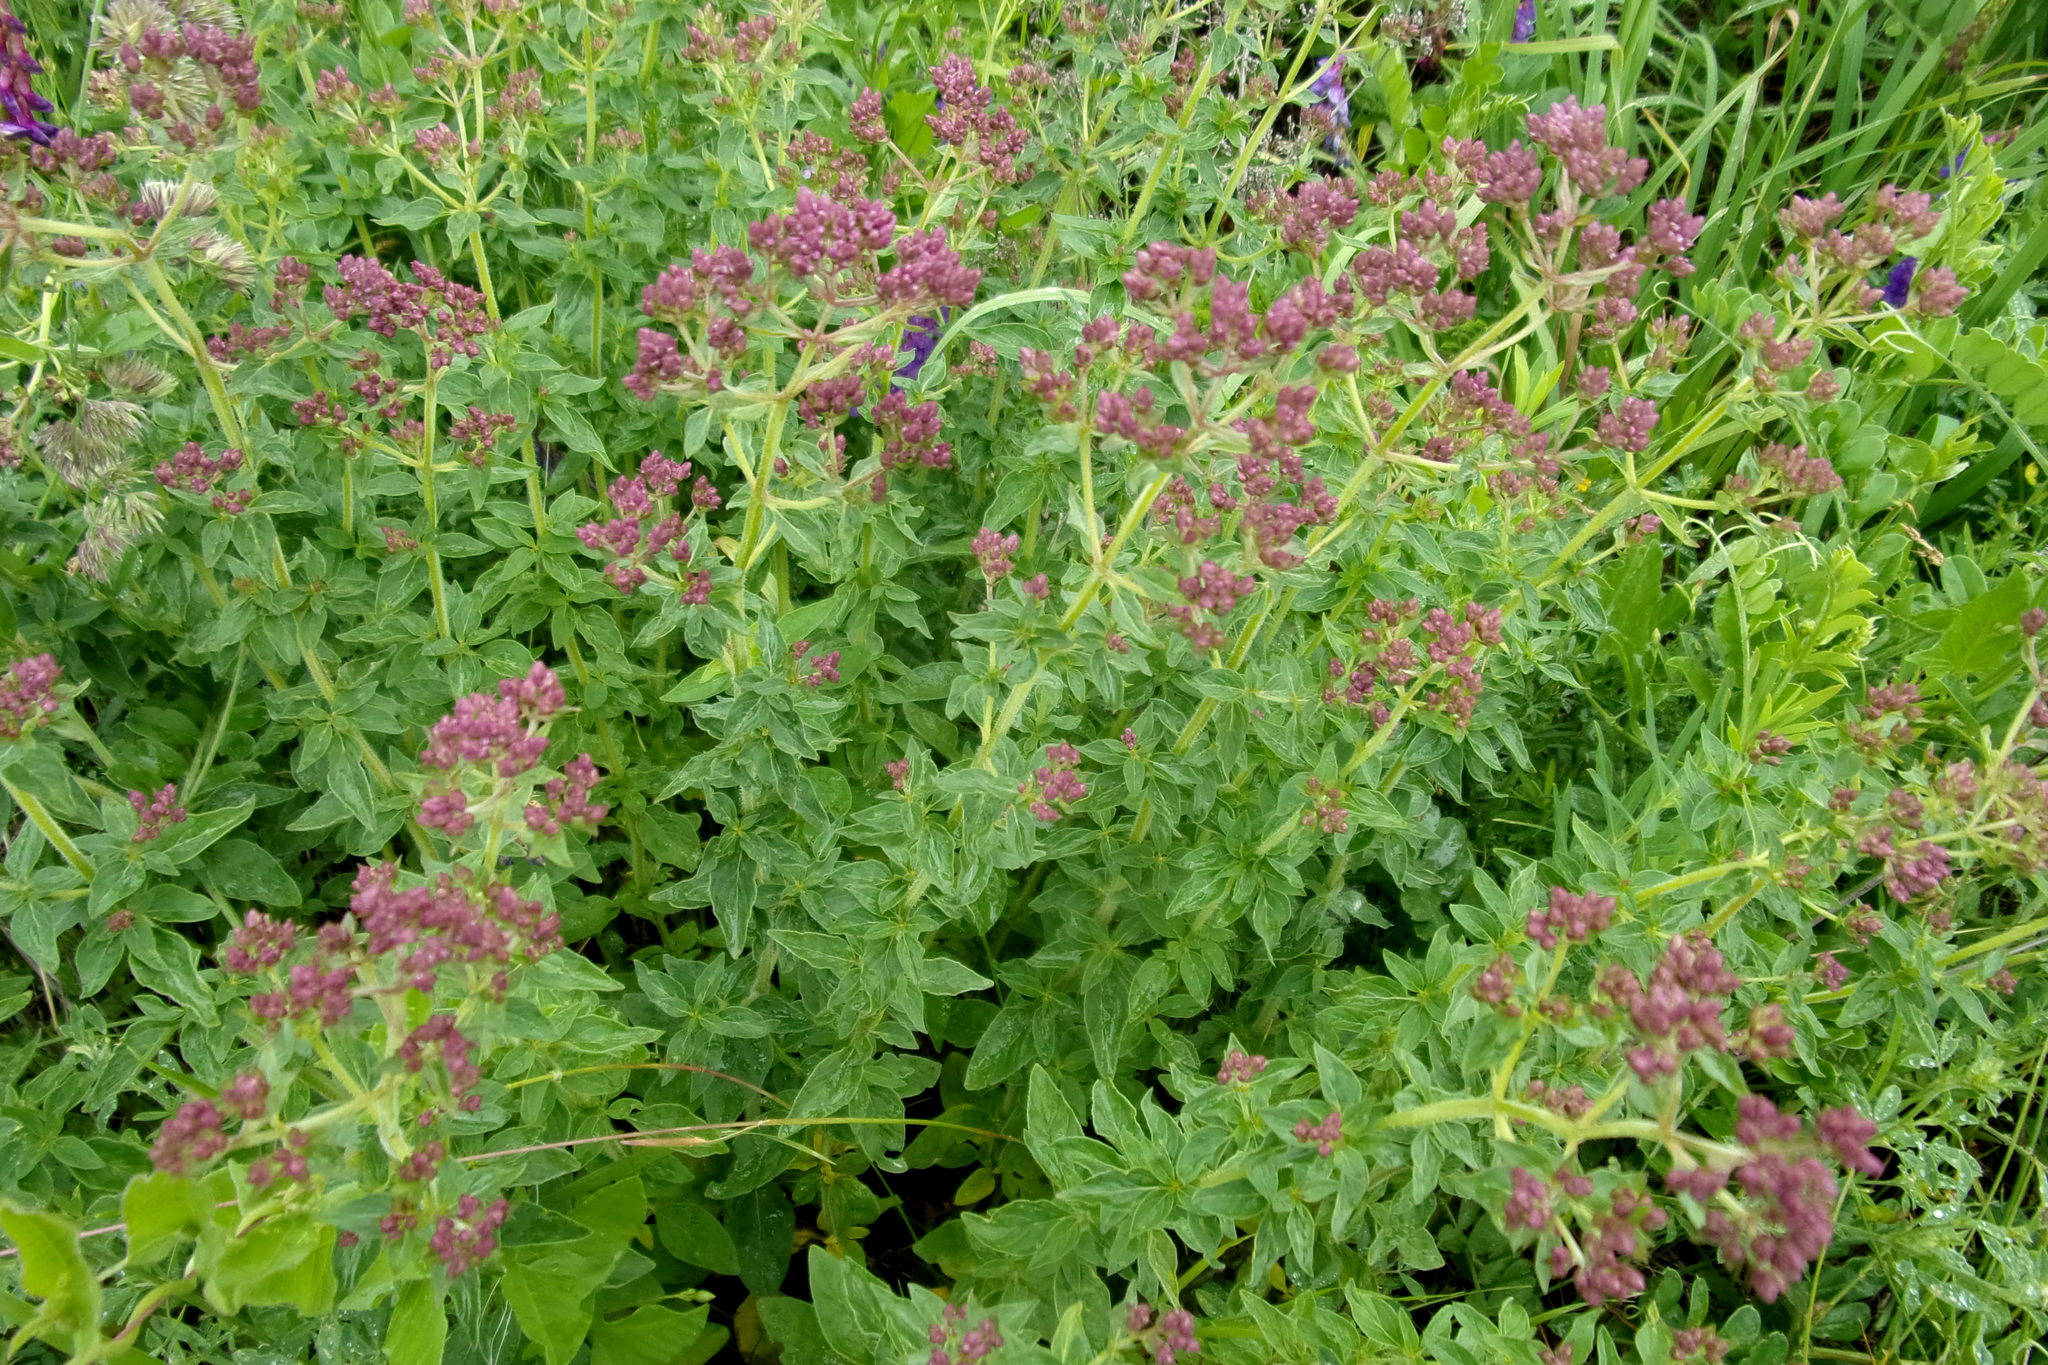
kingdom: Plantae
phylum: Tracheophyta
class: Magnoliopsida
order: Lamiales
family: Lamiaceae
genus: Origanum
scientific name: Origanum vulgare
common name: Wild marjoram
